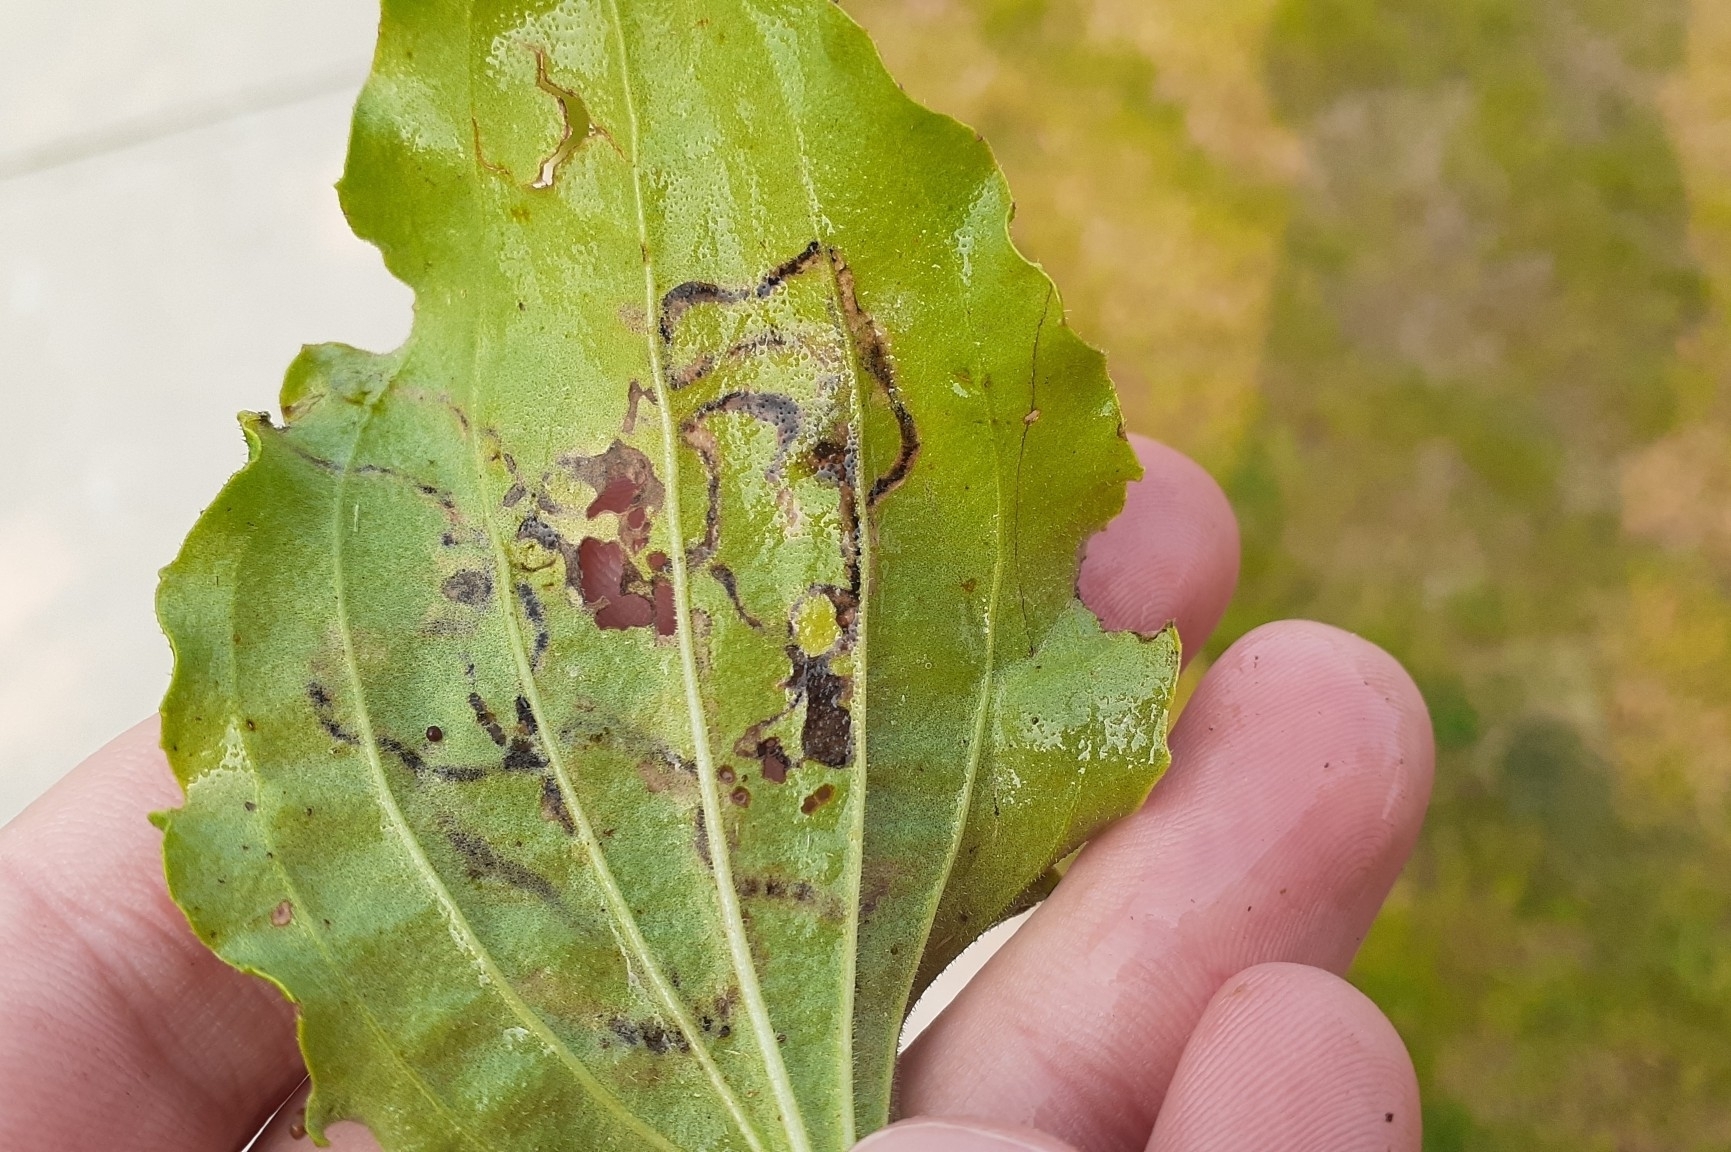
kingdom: Animalia
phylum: Arthropoda
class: Insecta
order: Coleoptera
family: Chrysomelidae
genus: Dibolia
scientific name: Dibolia borealis
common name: Northern plantain flea beetle
